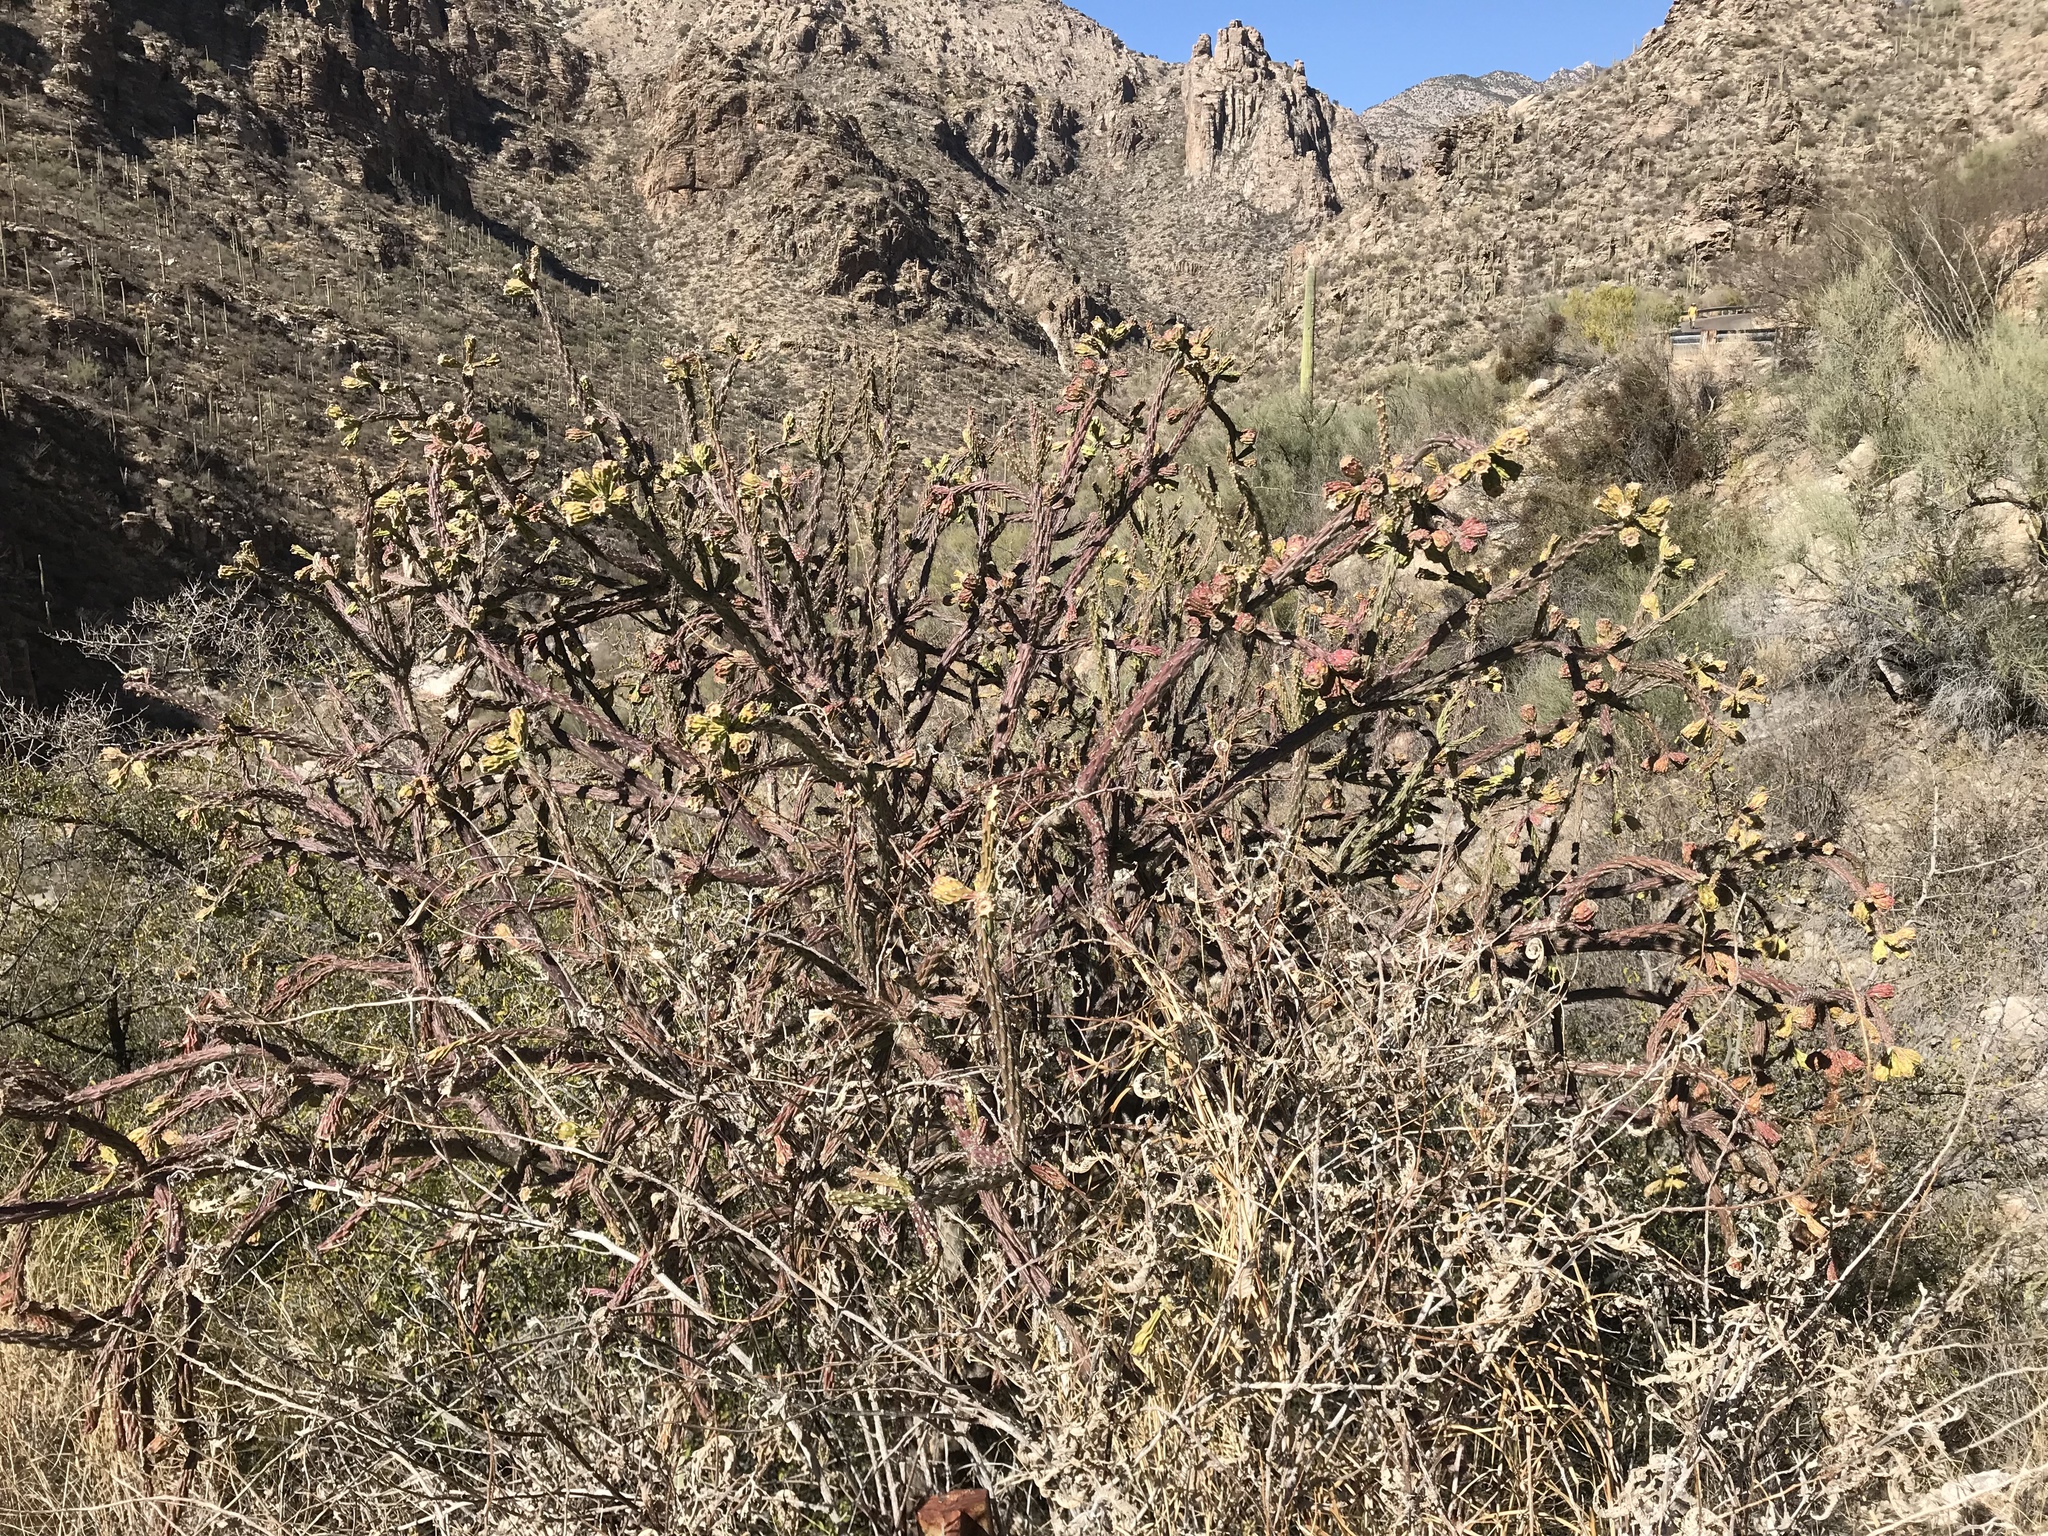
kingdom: Plantae
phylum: Tracheophyta
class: Magnoliopsida
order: Caryophyllales
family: Cactaceae
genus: Cylindropuntia
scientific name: Cylindropuntia thurberi
